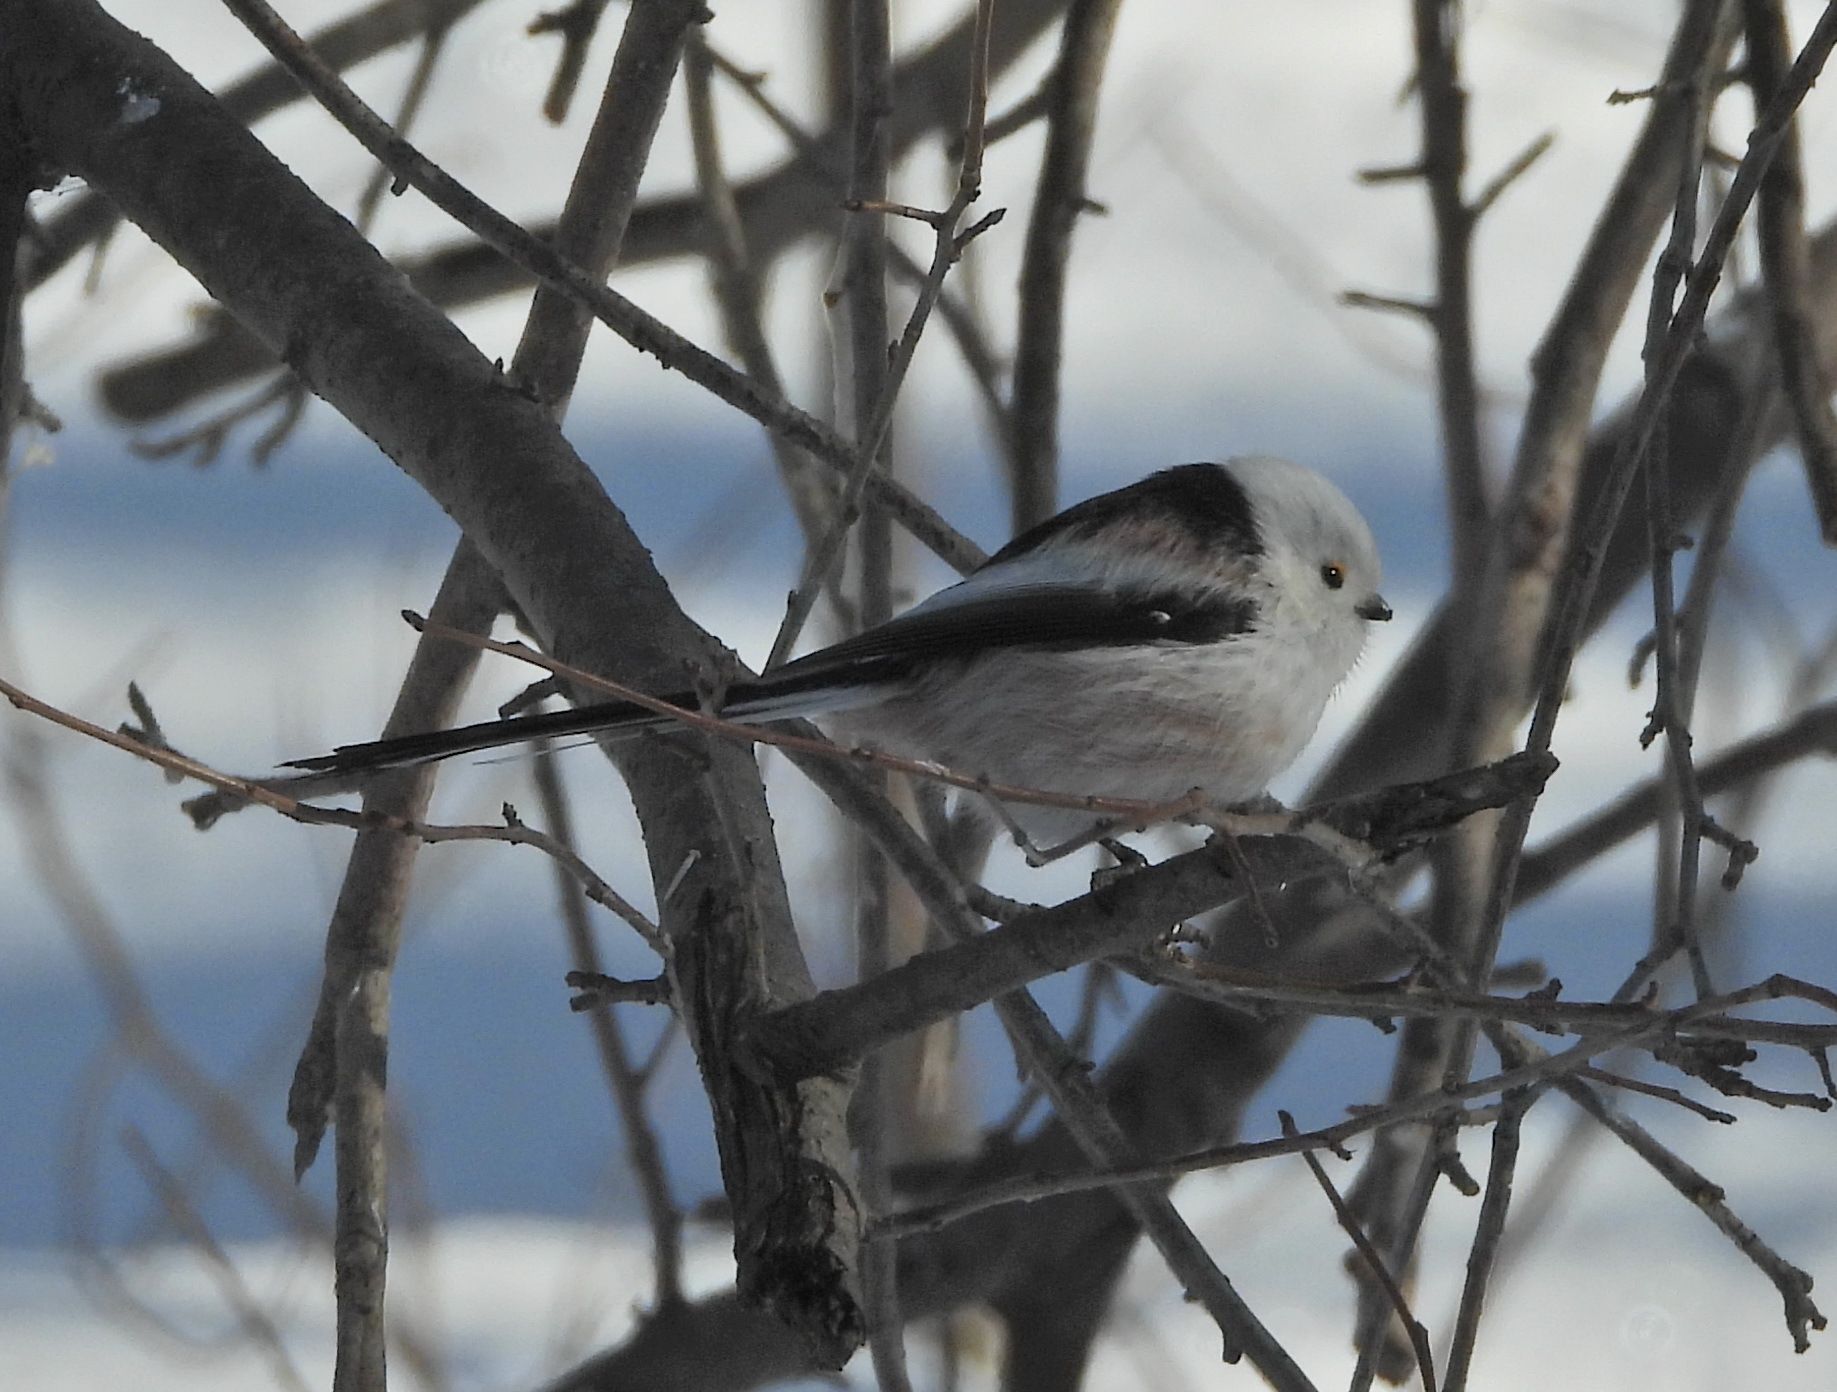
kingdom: Animalia
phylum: Chordata
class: Aves
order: Passeriformes
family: Aegithalidae
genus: Aegithalos
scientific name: Aegithalos caudatus
